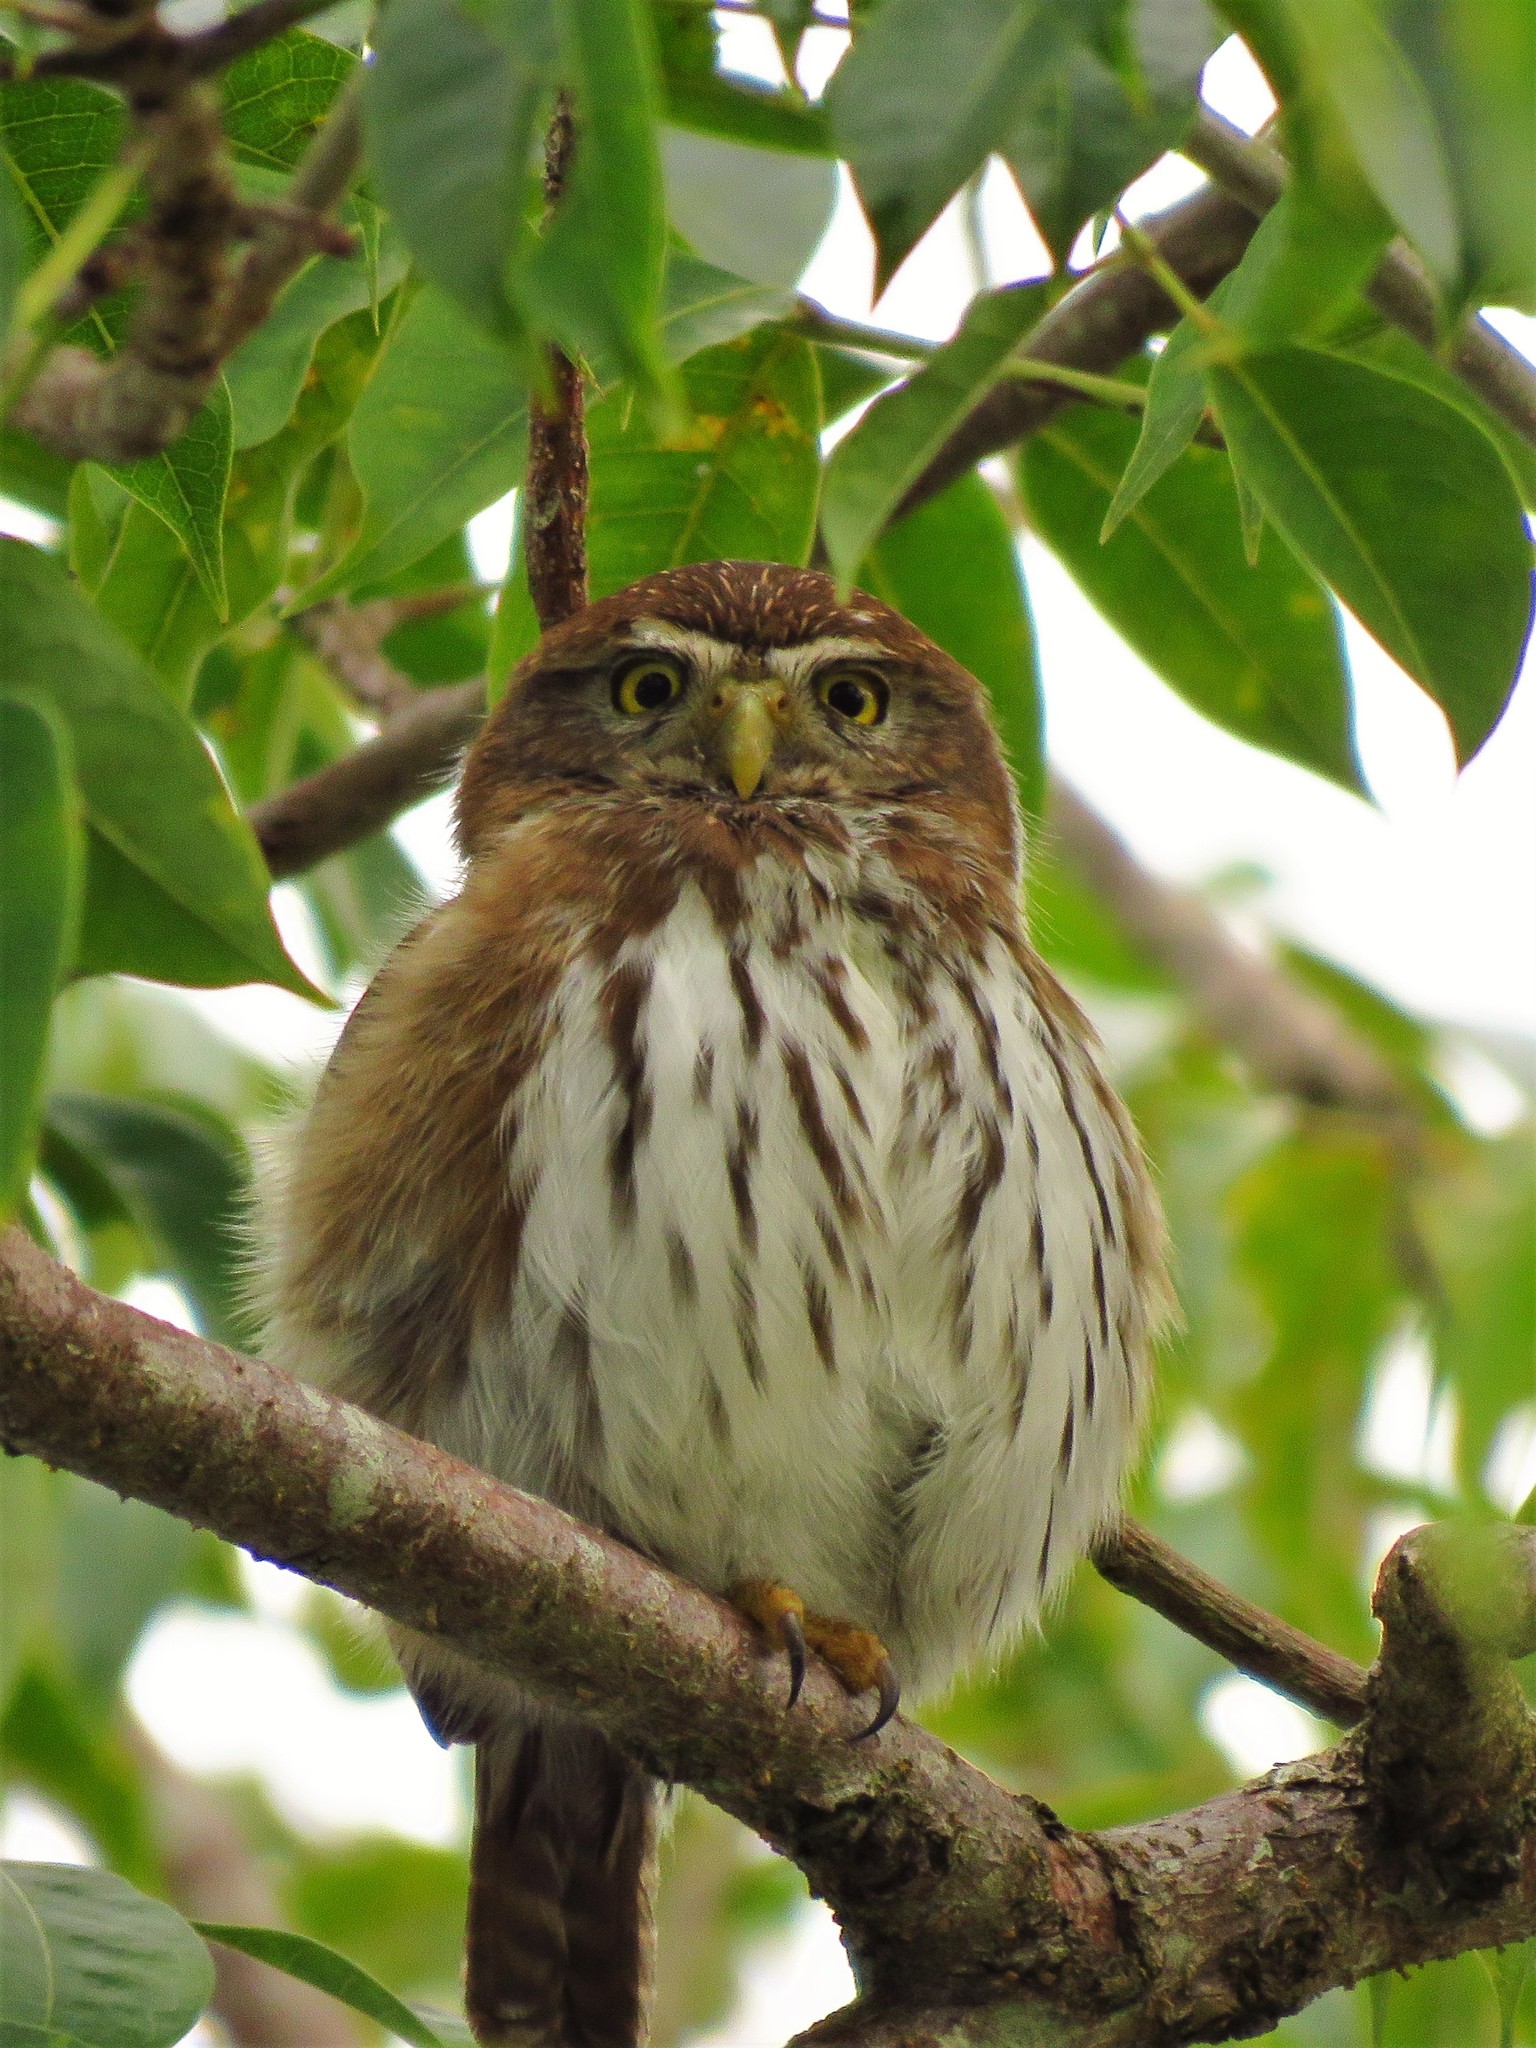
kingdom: Animalia
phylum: Chordata
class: Aves
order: Strigiformes
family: Strigidae
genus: Glaucidium
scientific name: Glaucidium brasilianum
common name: Ferruginous pygmy-owl
